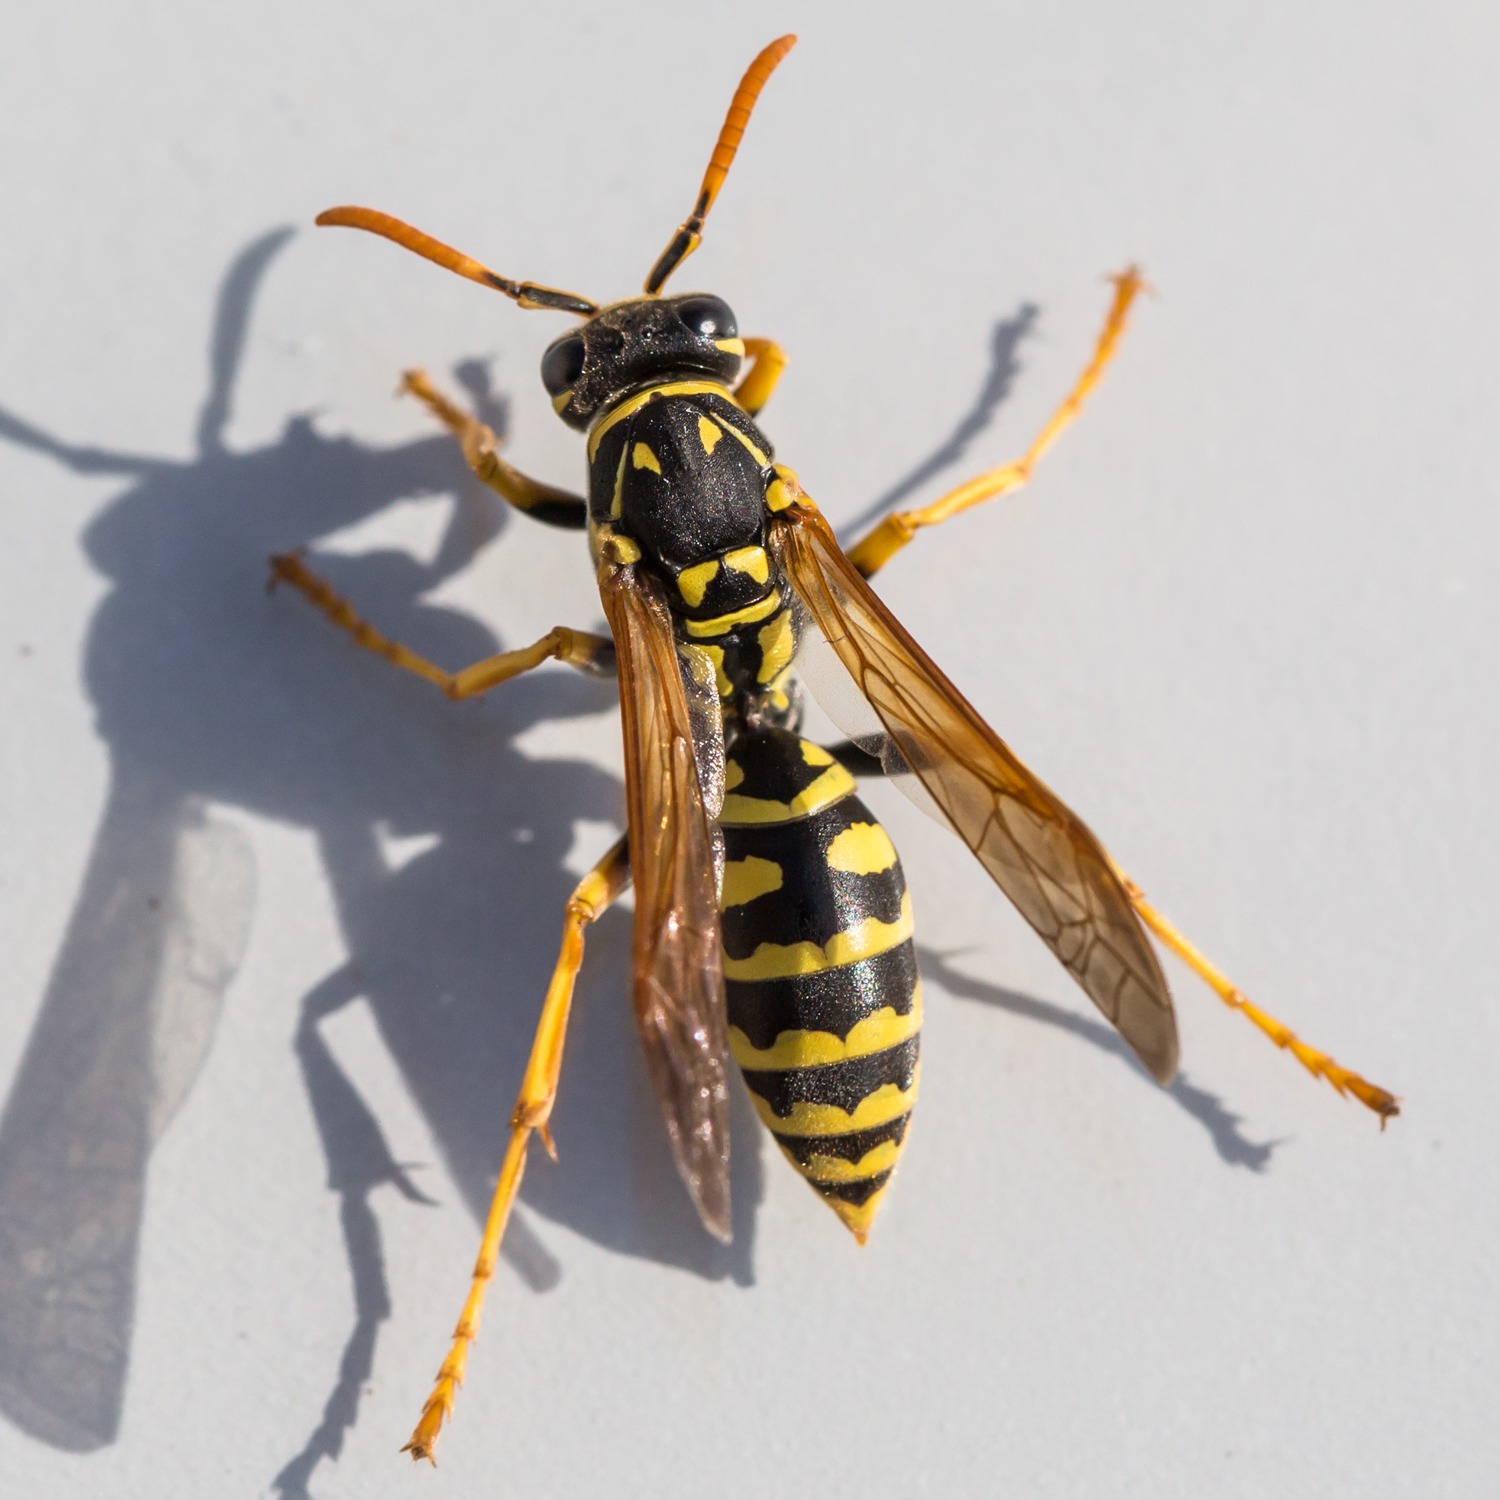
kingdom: Animalia
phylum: Arthropoda
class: Insecta
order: Hymenoptera
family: Eumenidae
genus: Polistes
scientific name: Polistes dominula
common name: Paper wasp
